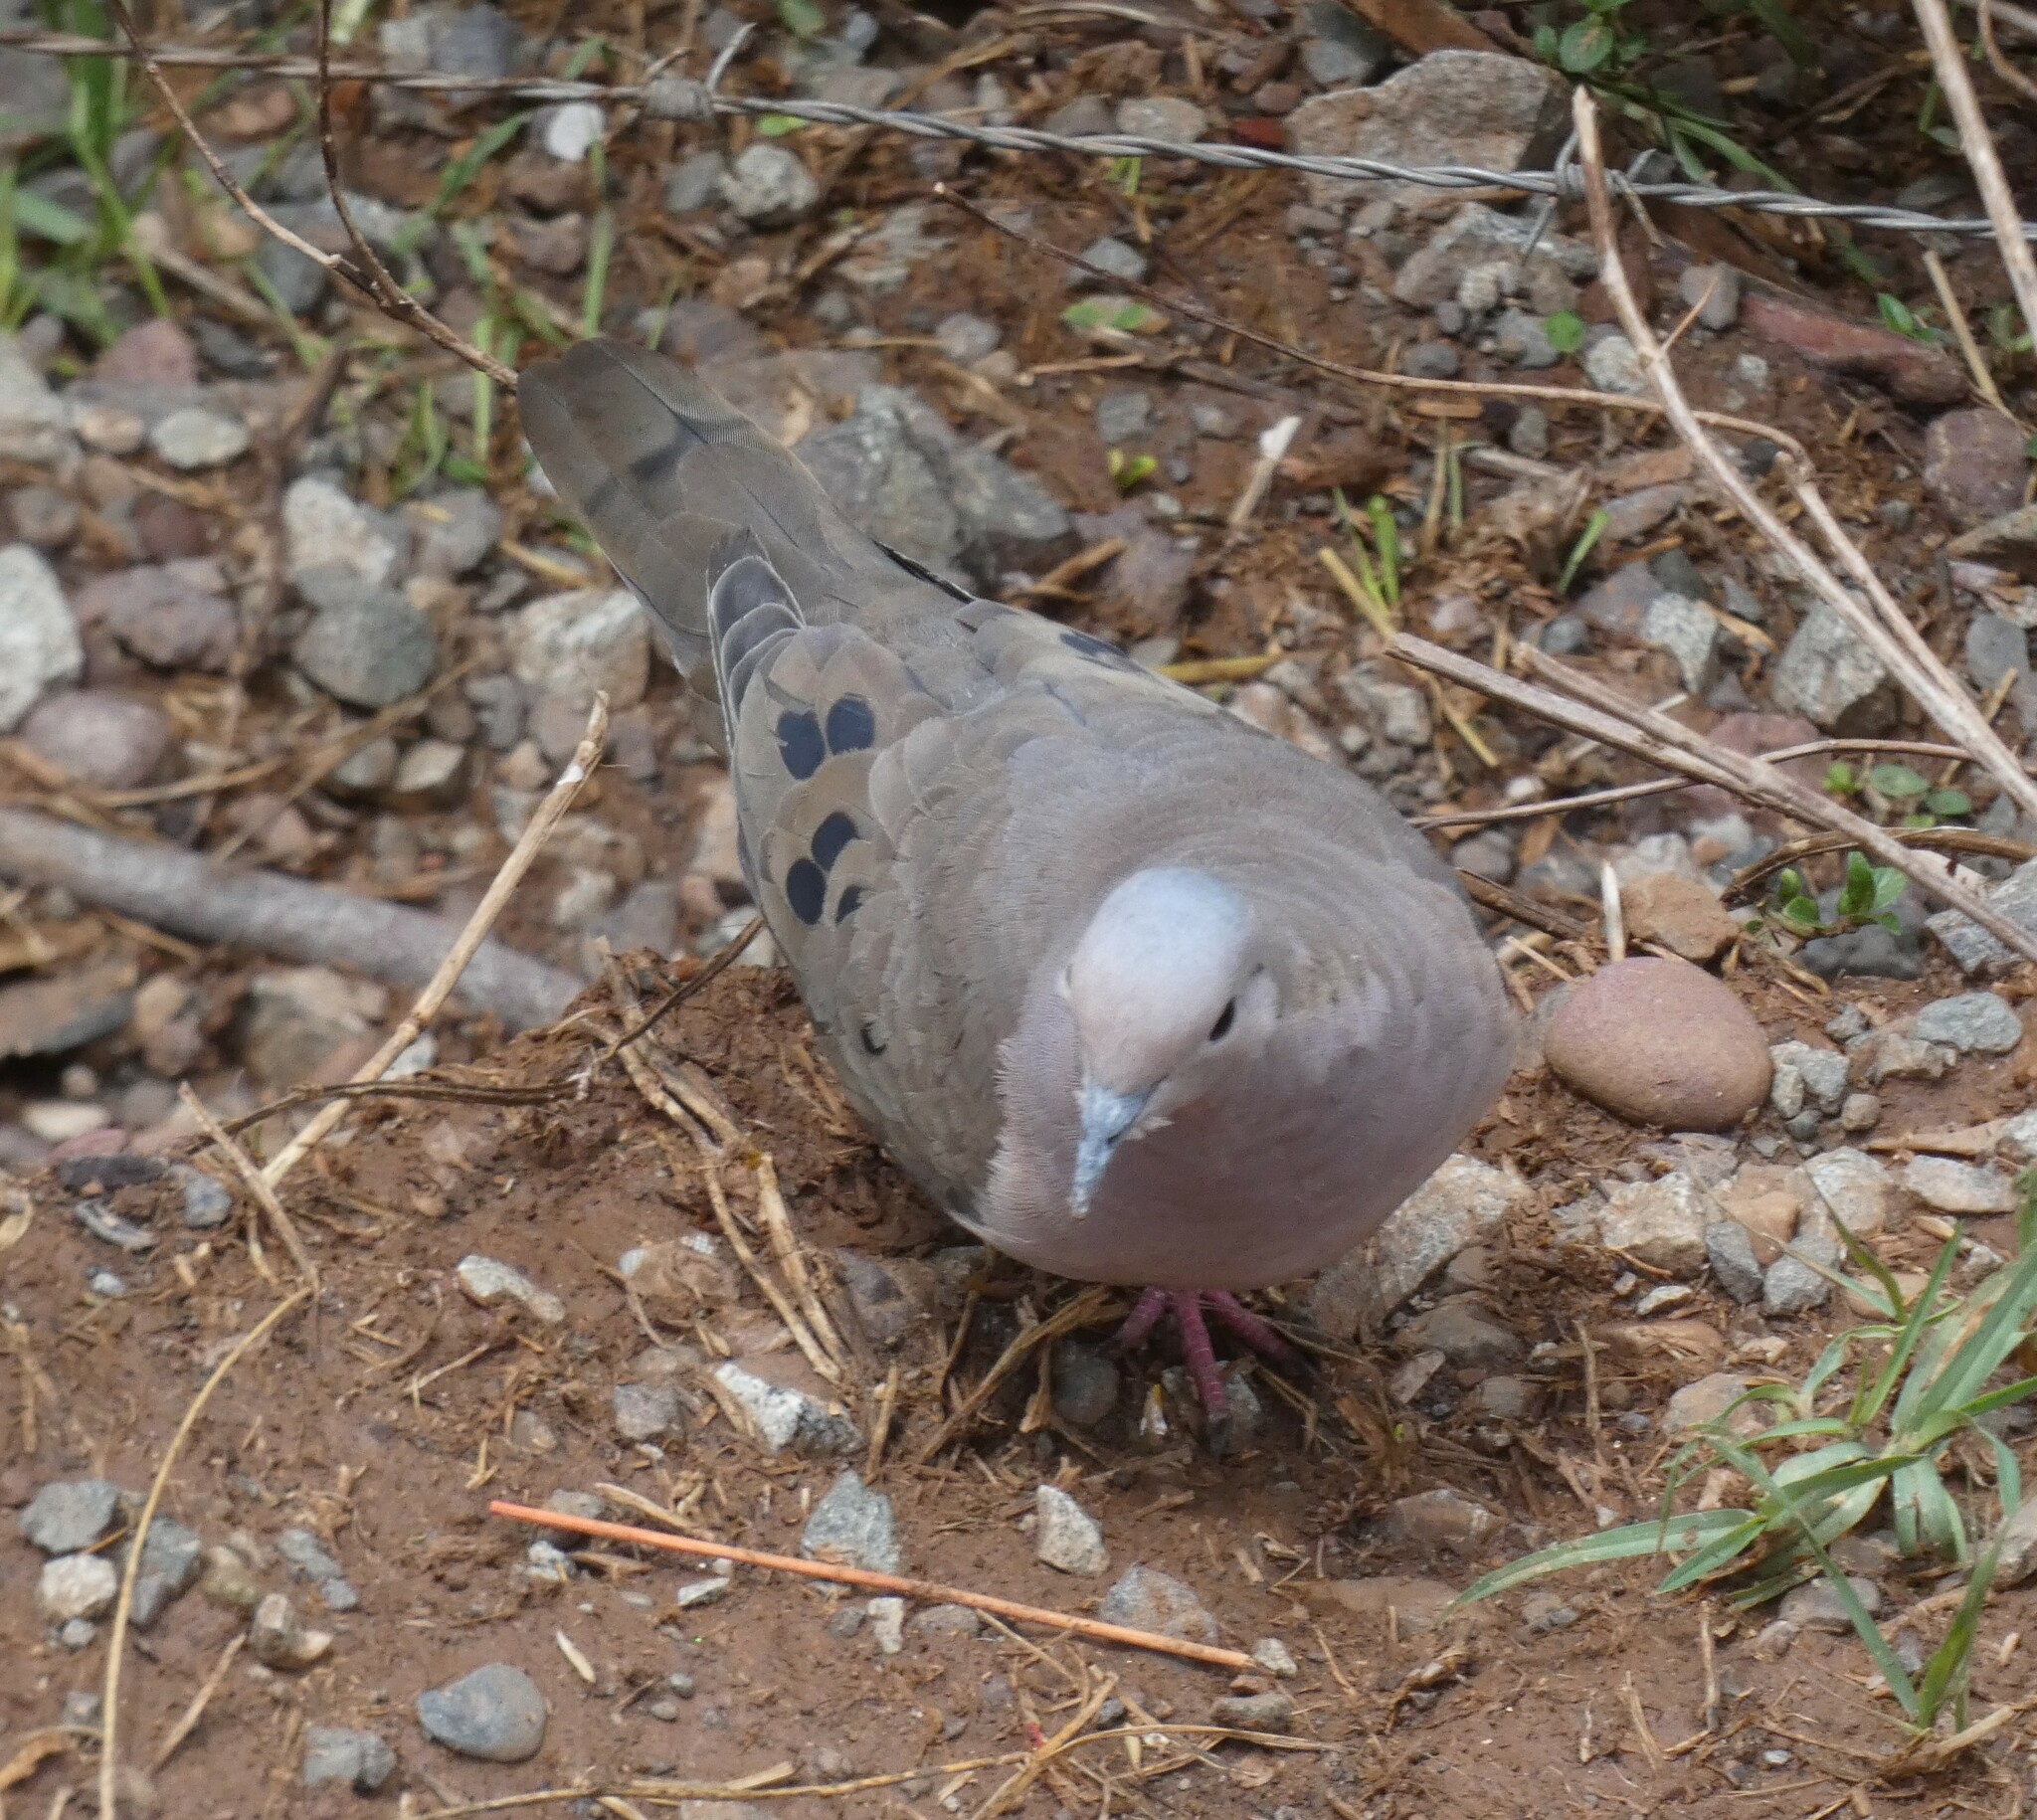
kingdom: Animalia
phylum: Chordata
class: Aves
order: Columbiformes
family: Columbidae
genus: Zenaida
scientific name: Zenaida auriculata
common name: Eared dove
